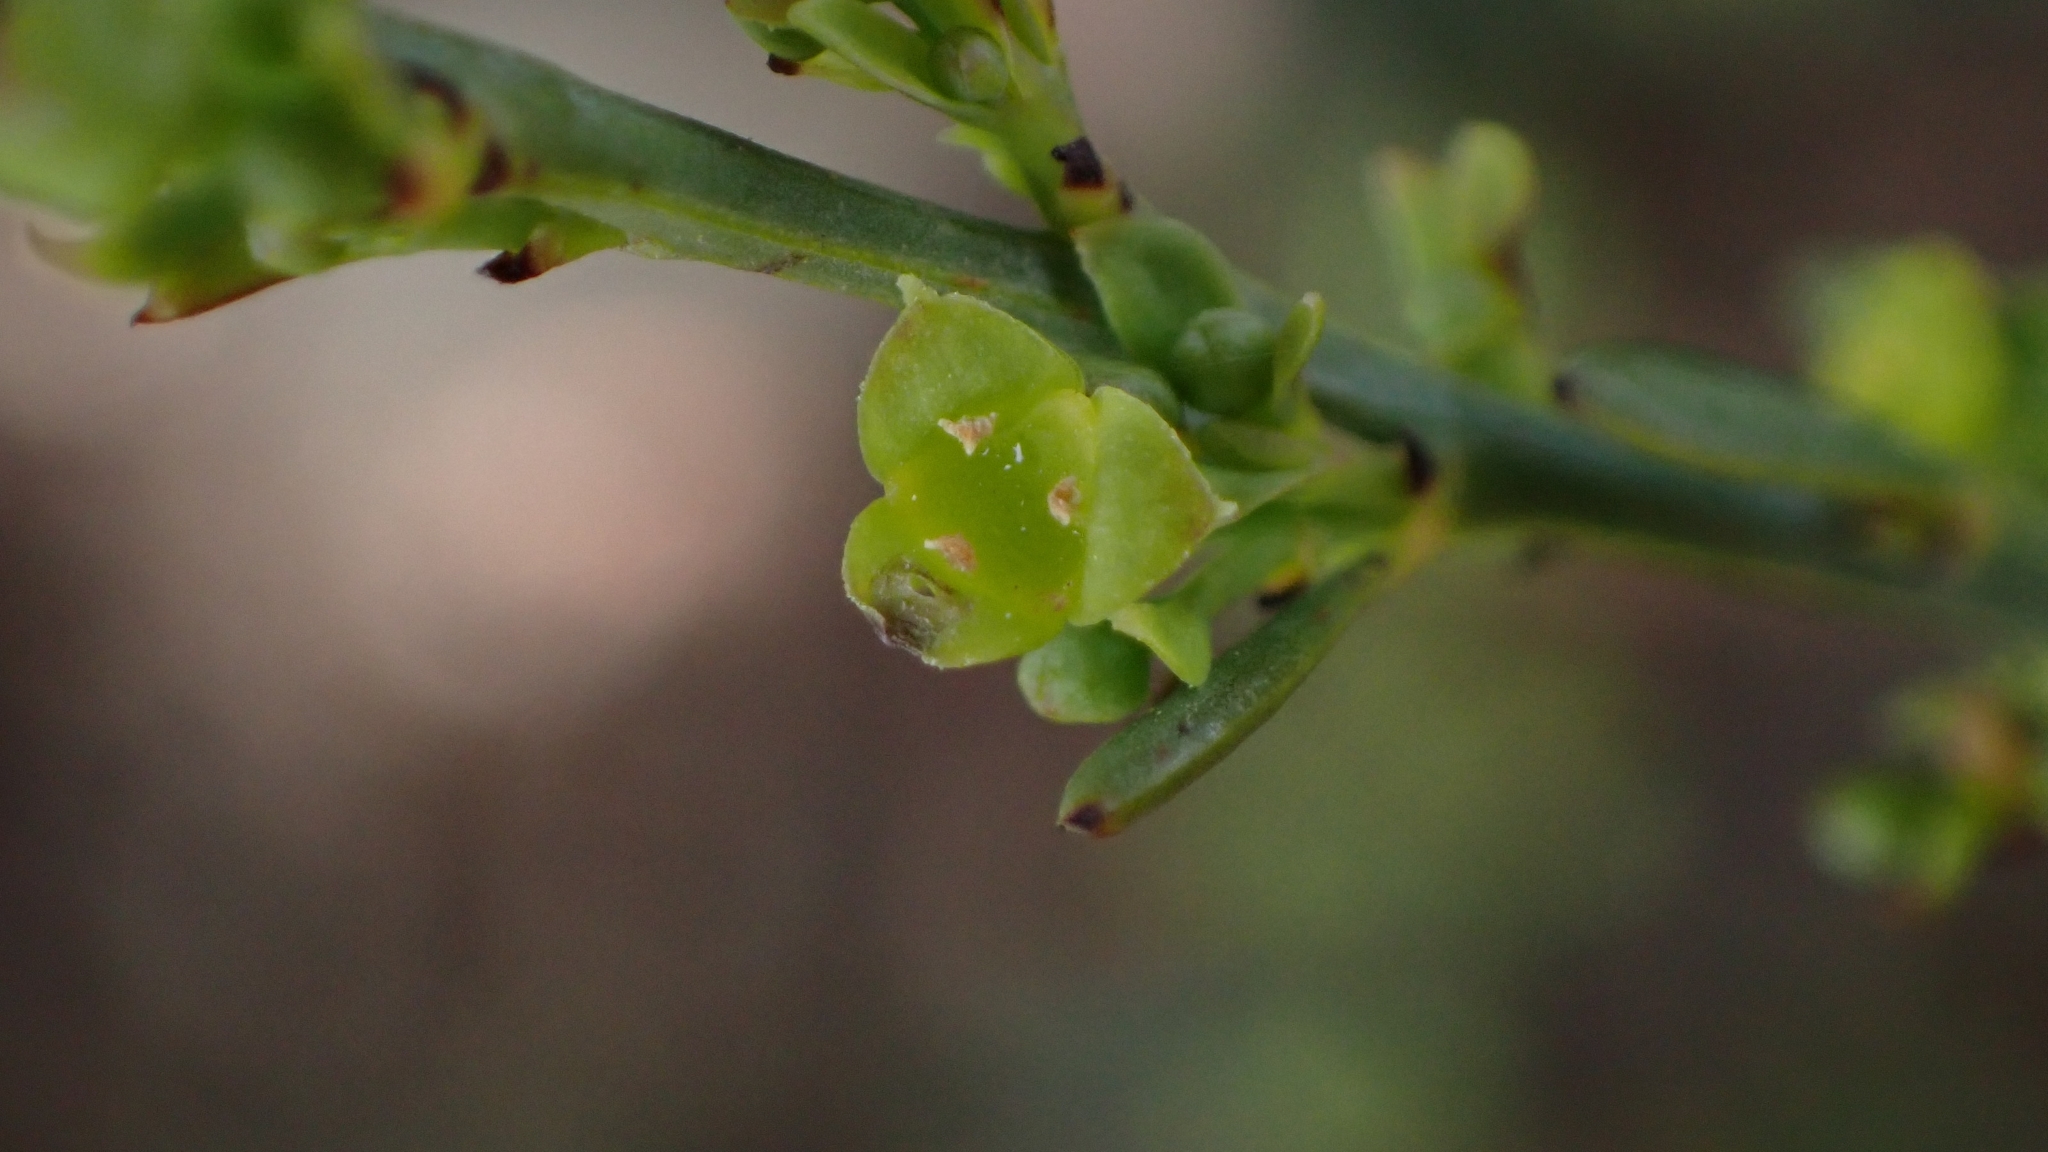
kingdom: Plantae
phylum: Tracheophyta
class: Magnoliopsida
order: Santalales
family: Santalaceae
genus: Osyris
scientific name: Osyris alba
